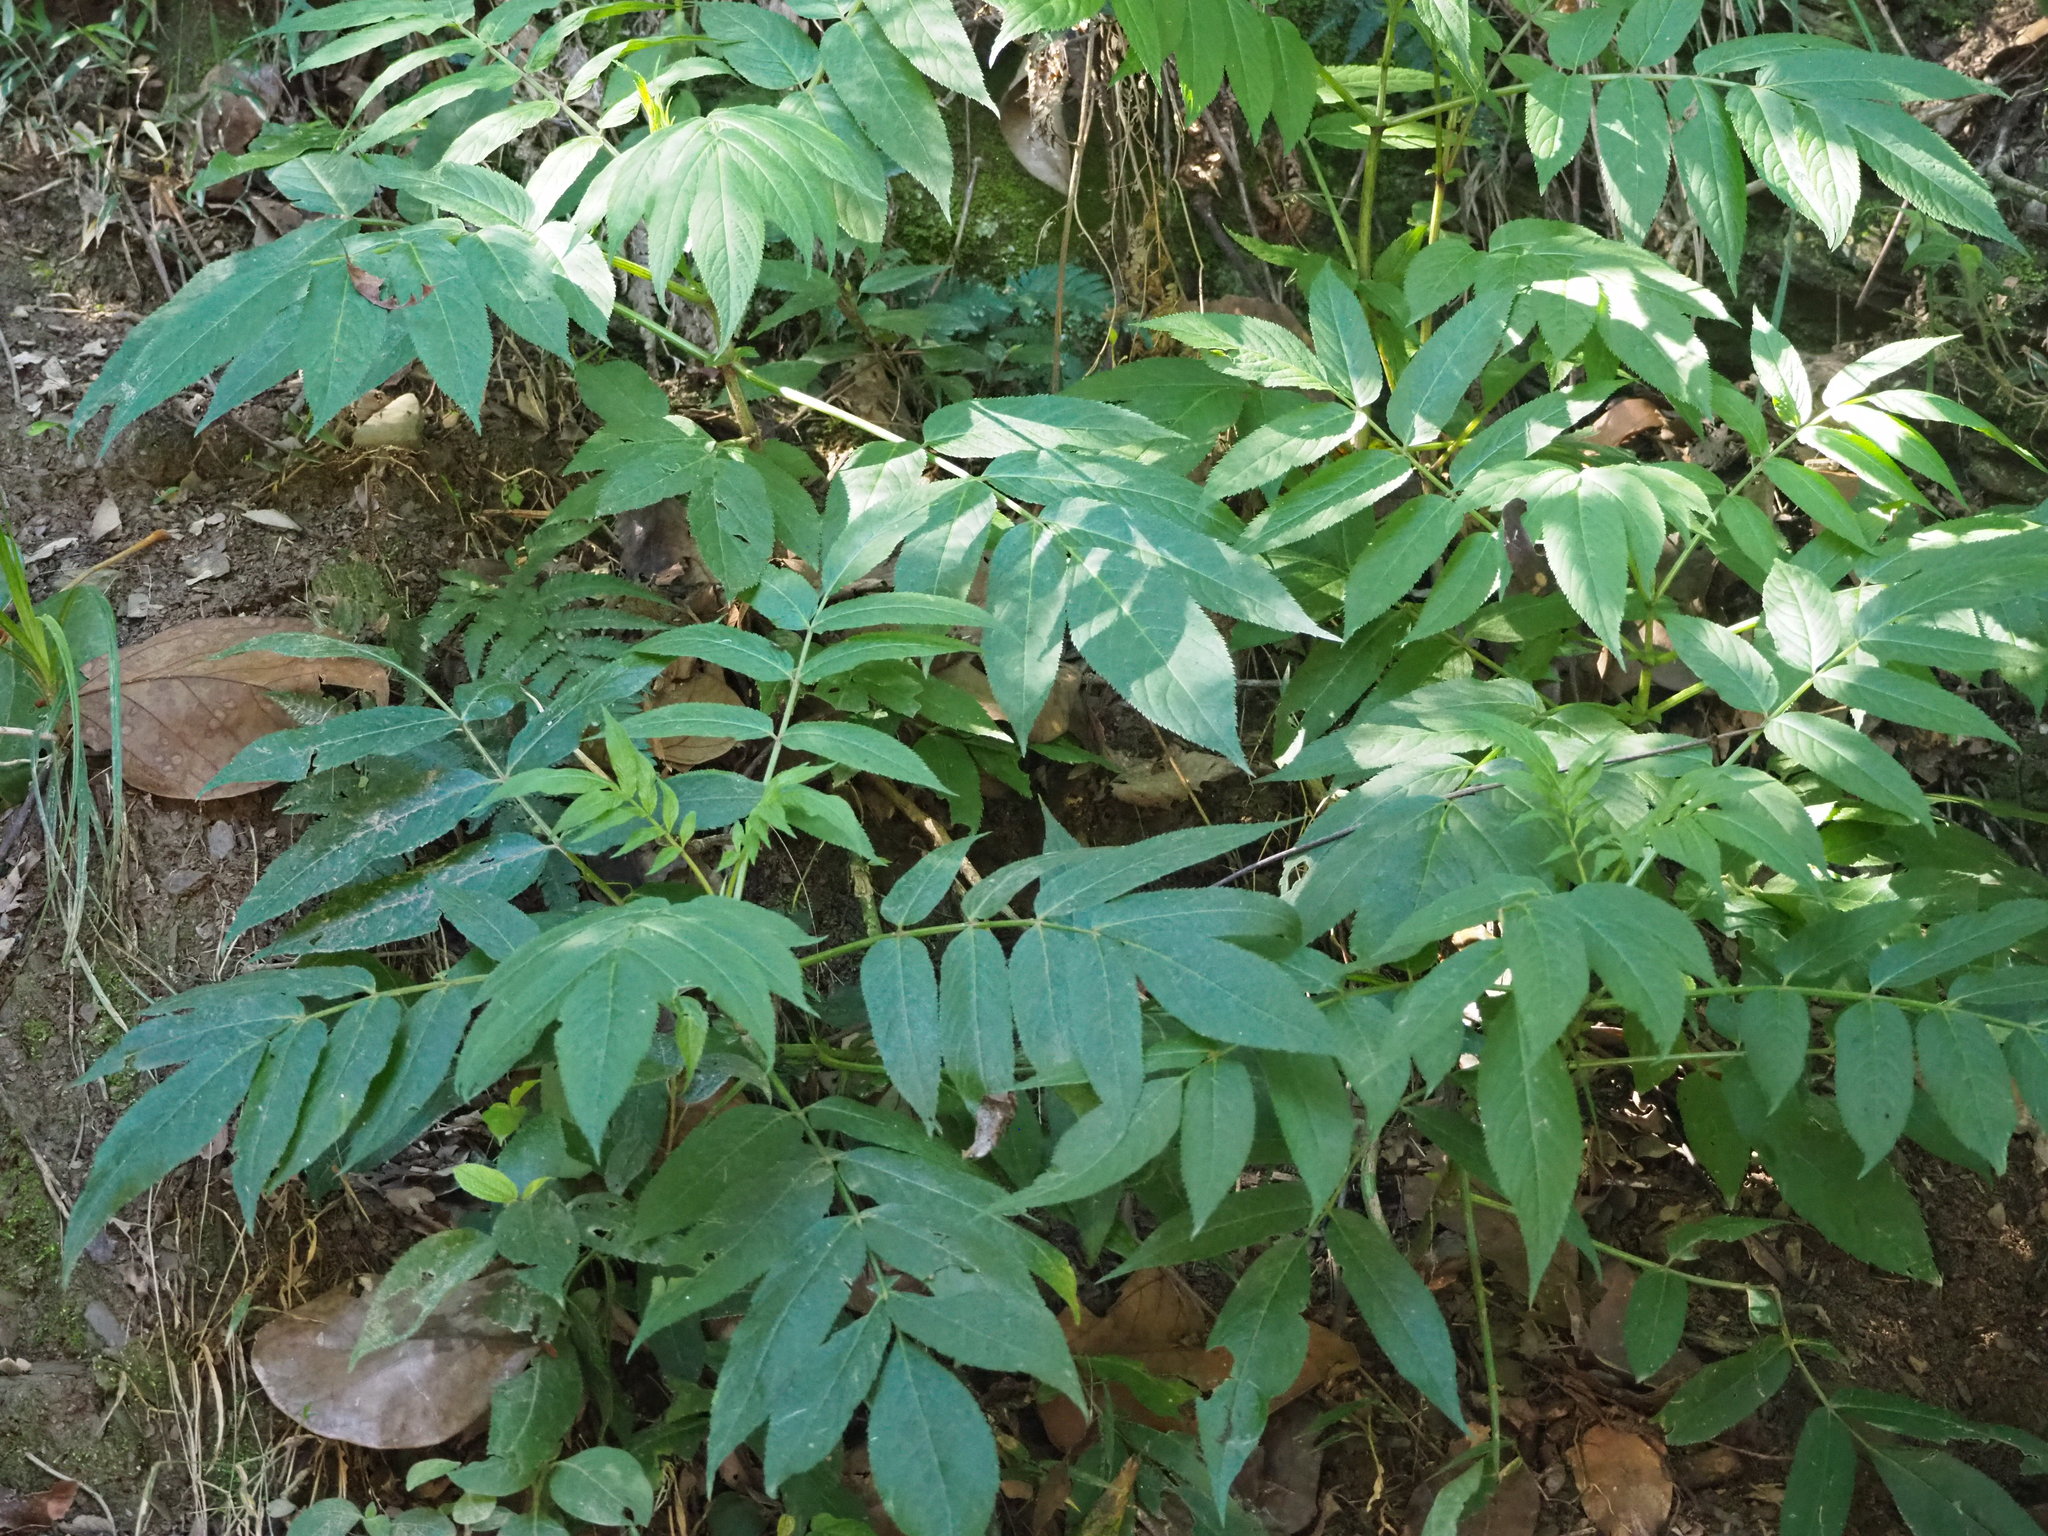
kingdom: Plantae
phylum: Tracheophyta
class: Magnoliopsida
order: Dipsacales
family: Viburnaceae
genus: Sambucus
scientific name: Sambucus javanica
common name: Chinese elder
